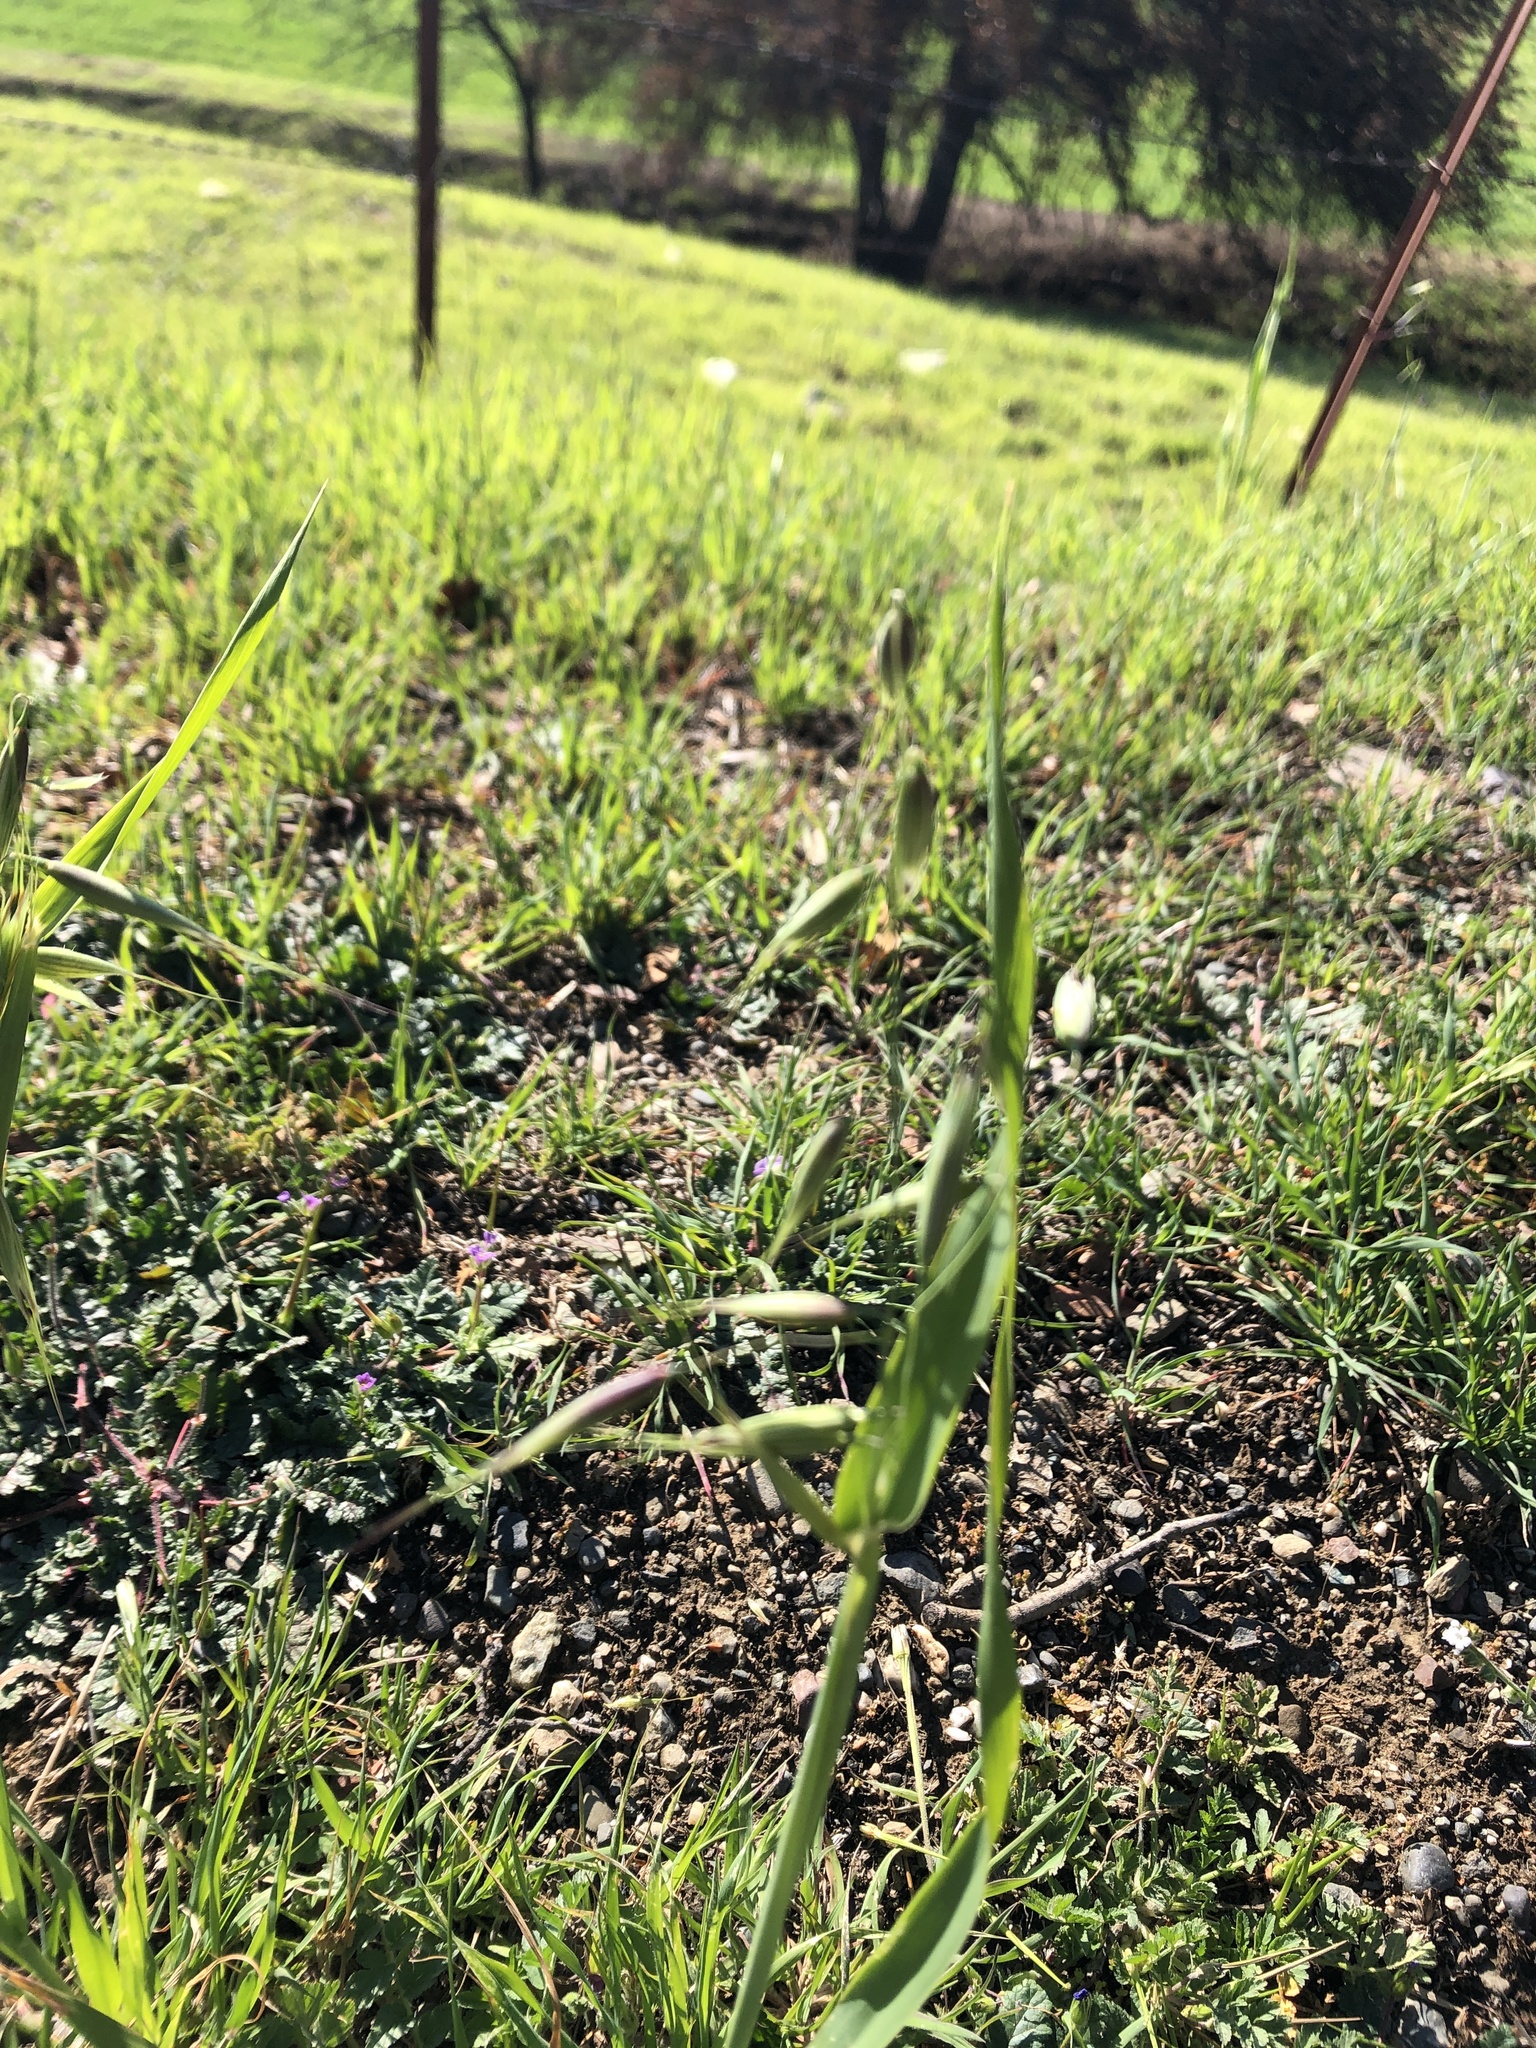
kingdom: Plantae
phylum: Tracheophyta
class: Liliopsida
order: Poales
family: Poaceae
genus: Avena
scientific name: Avena fatua
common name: Wild oat
